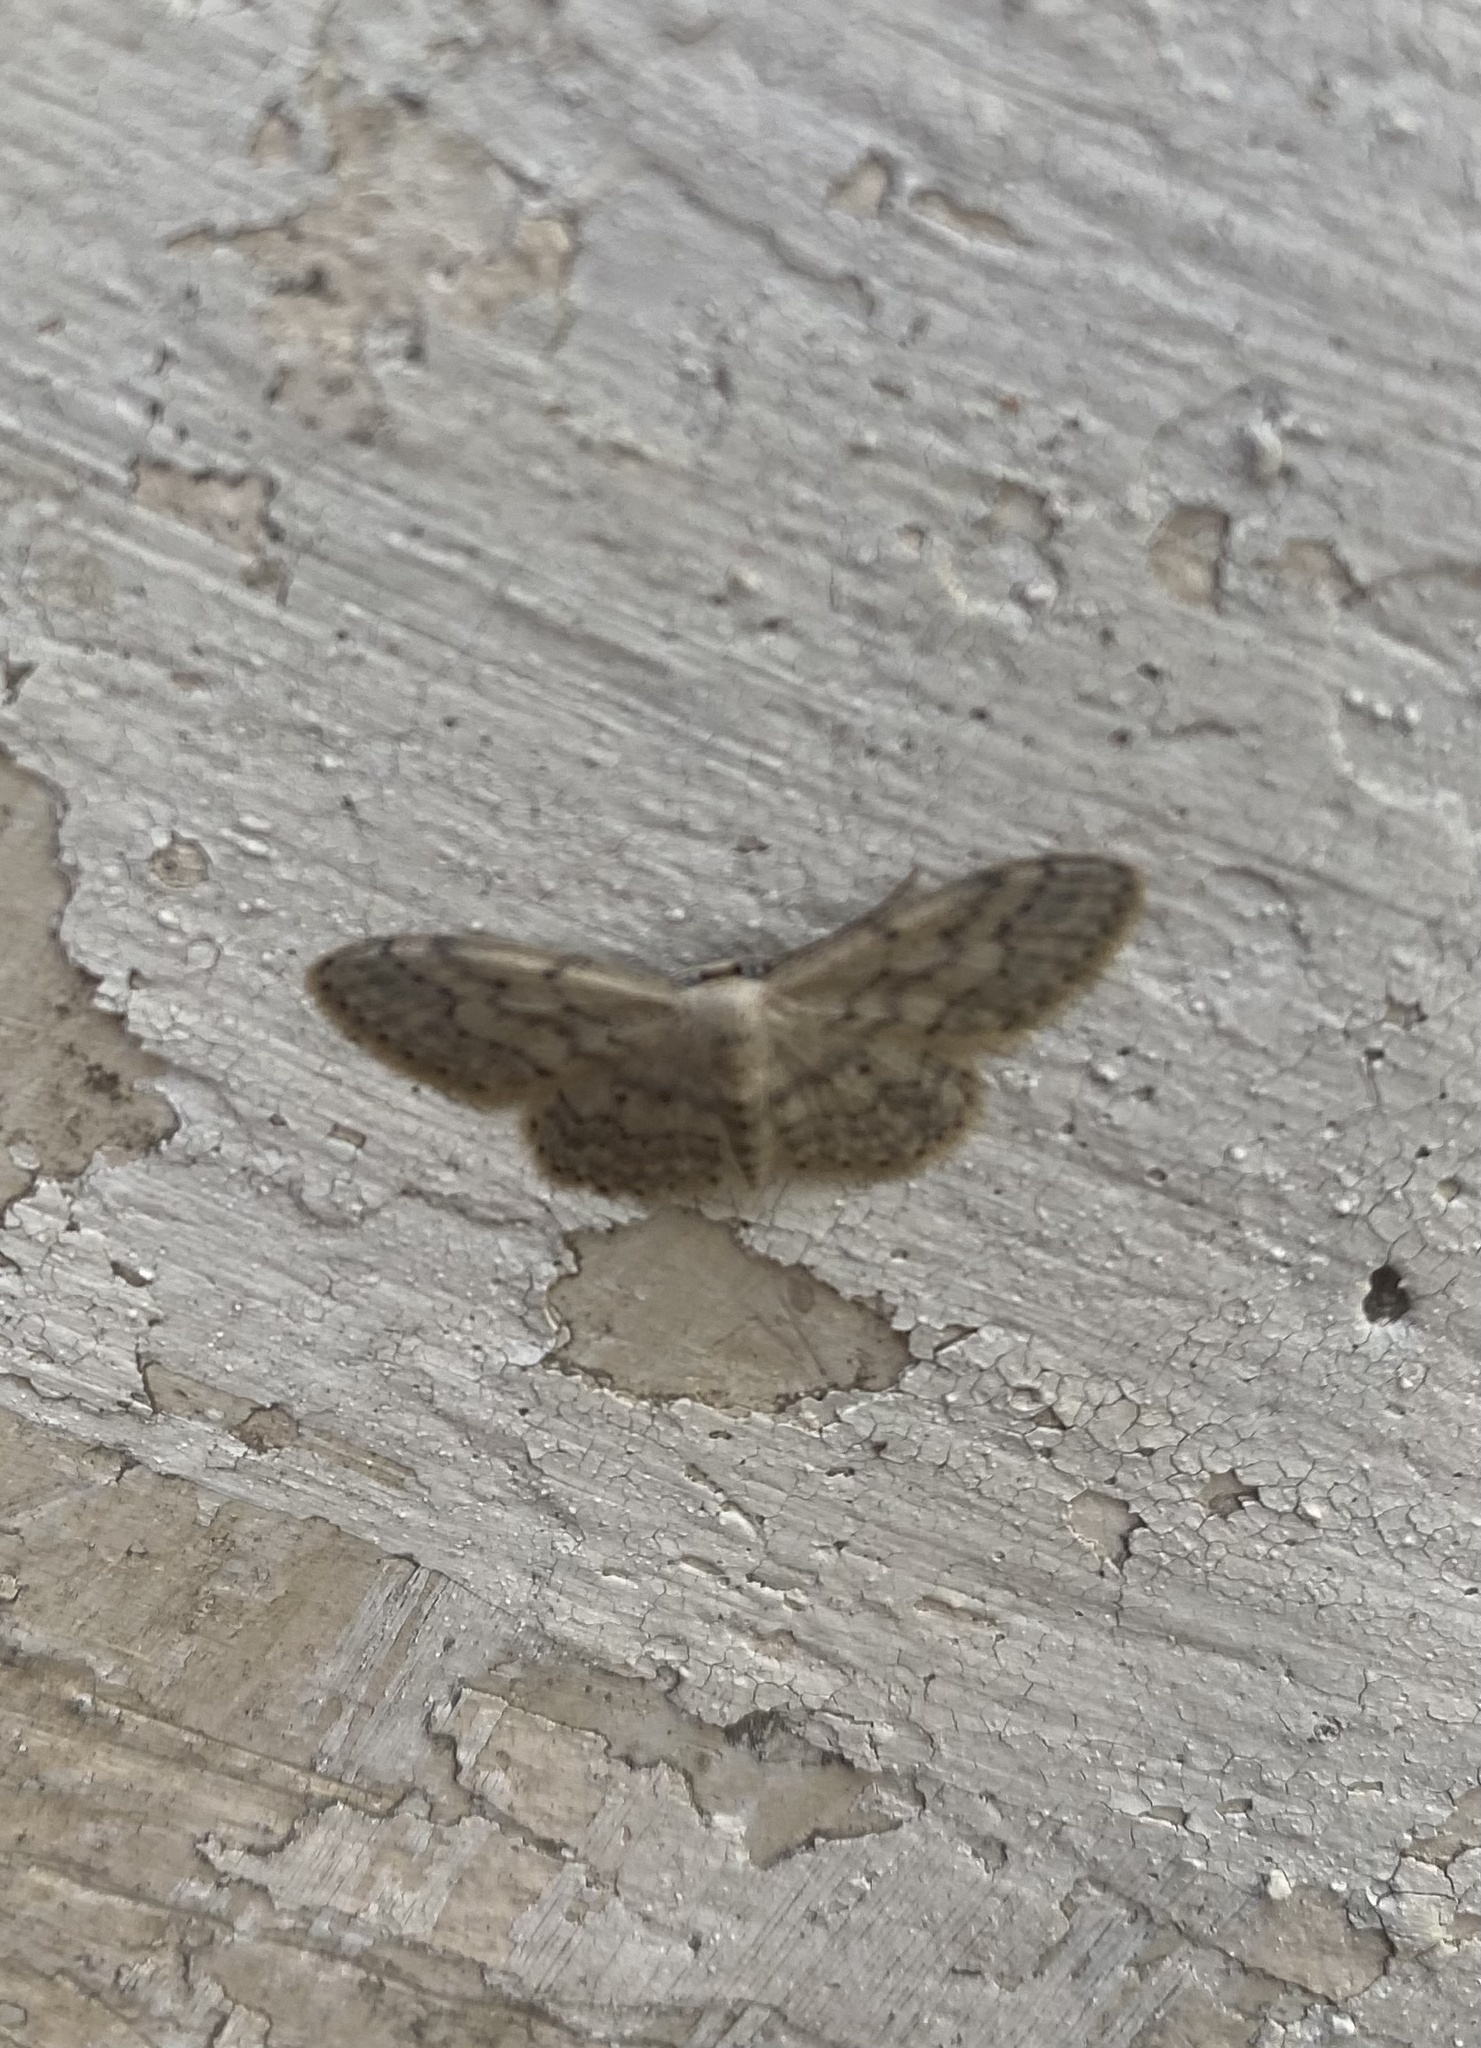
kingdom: Animalia
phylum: Arthropoda
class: Insecta
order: Lepidoptera
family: Geometridae
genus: Idaea
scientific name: Idaea seriata
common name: Small dusty wave
